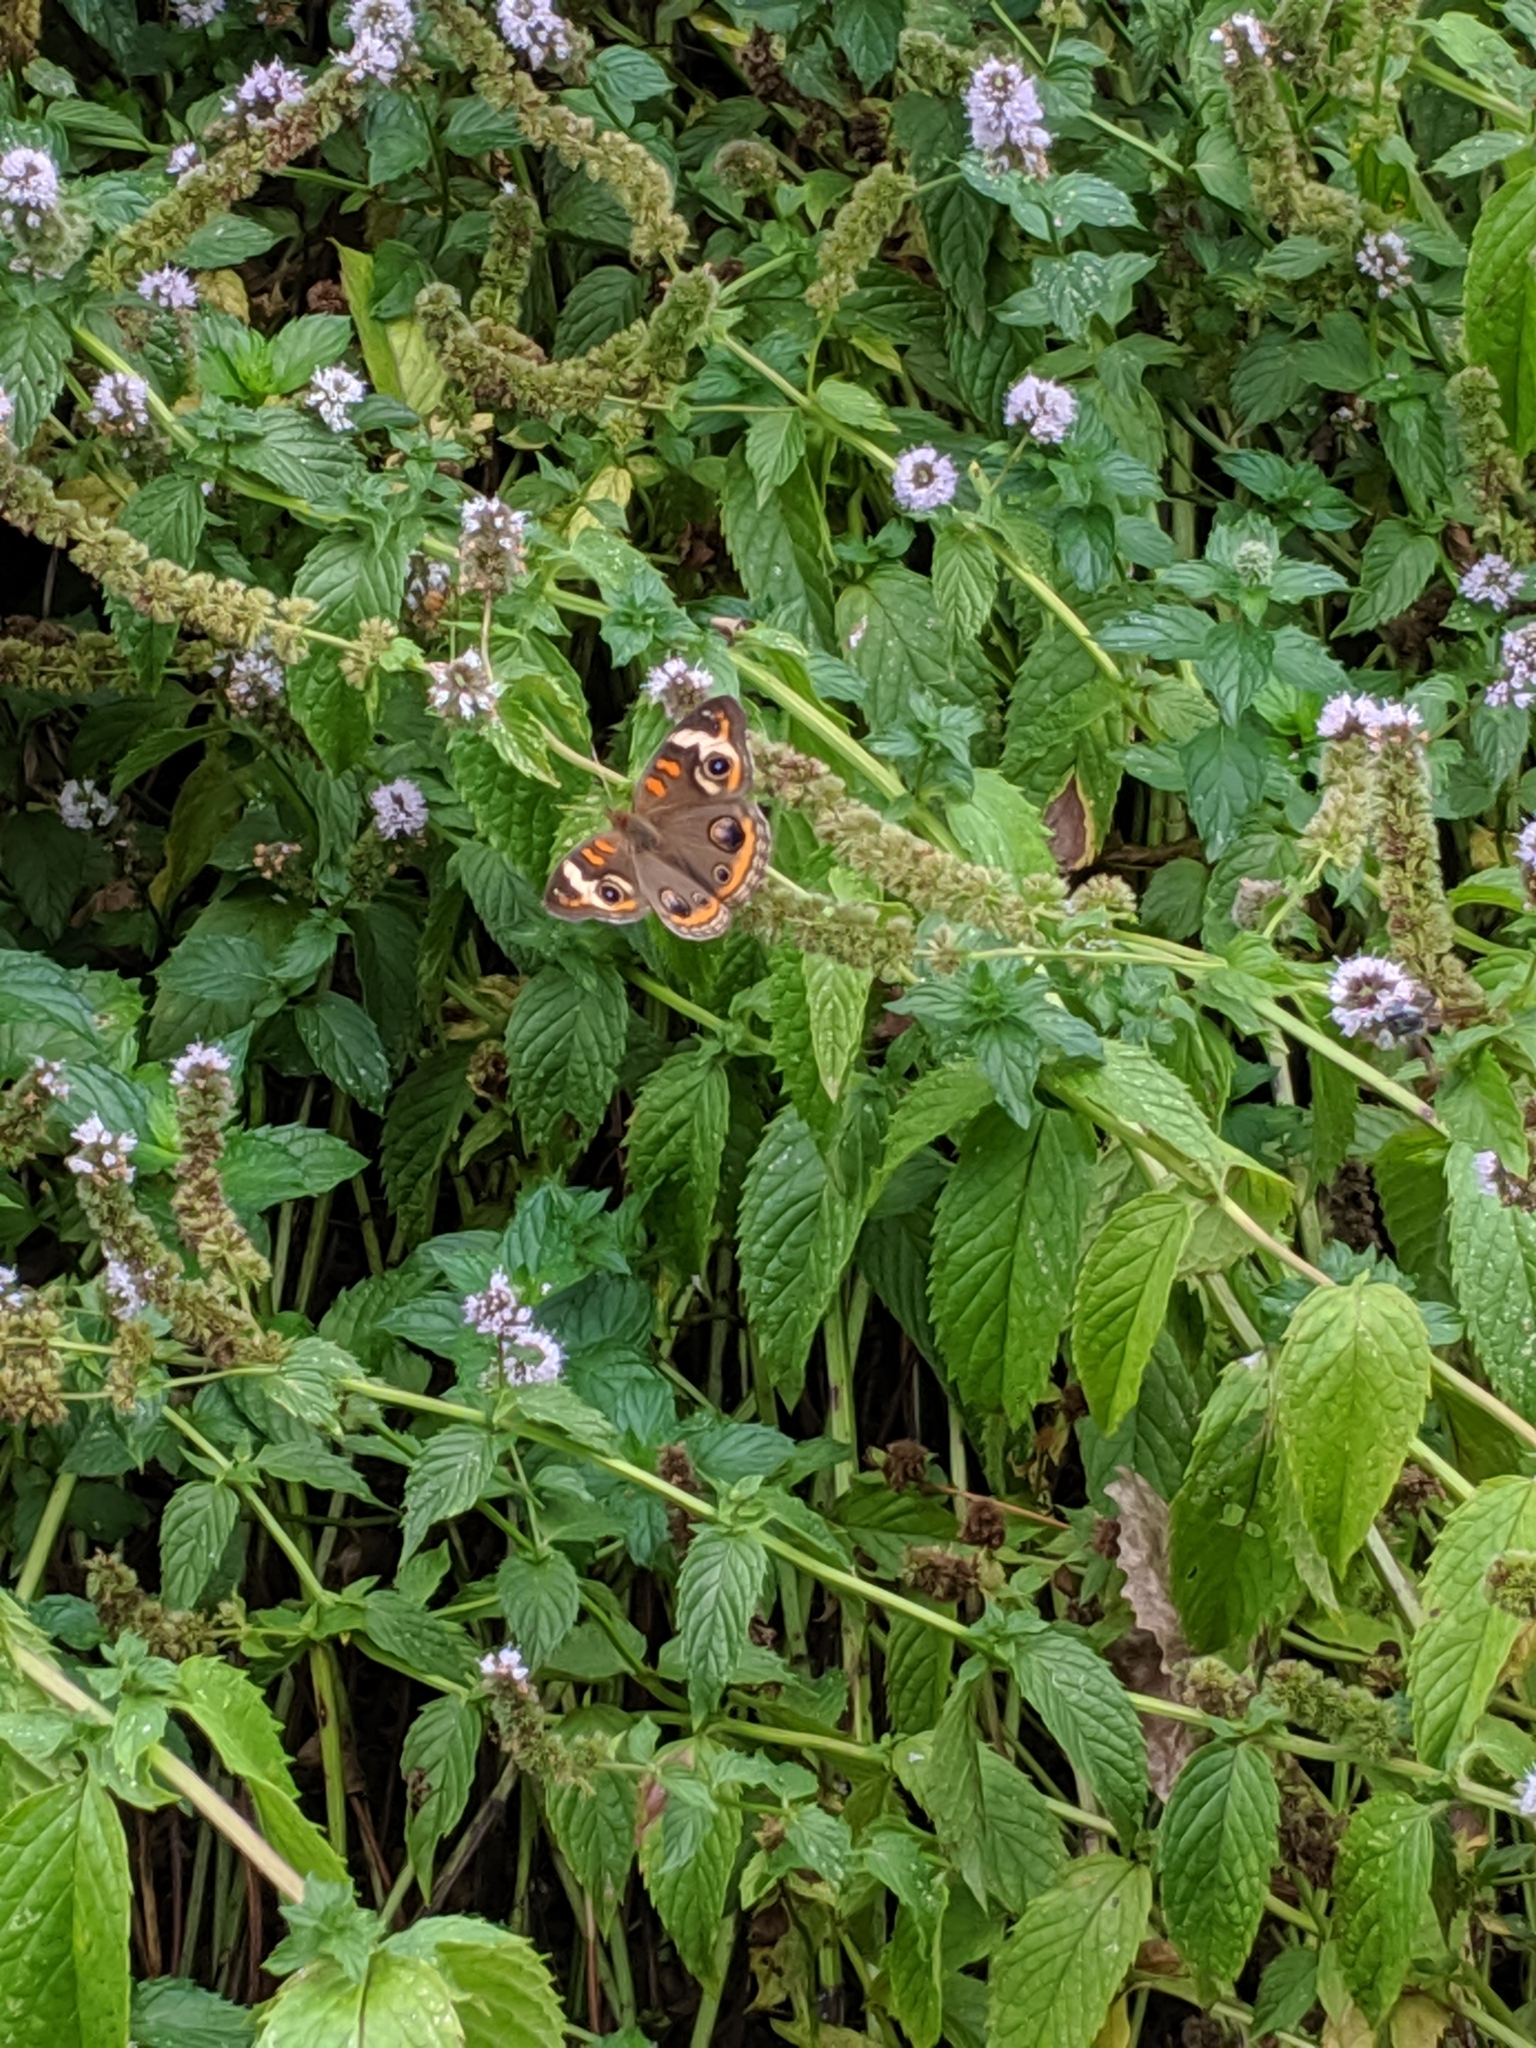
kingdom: Animalia
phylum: Arthropoda
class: Insecta
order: Lepidoptera
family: Nymphalidae
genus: Junonia
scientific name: Junonia coenia
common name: Common buckeye
